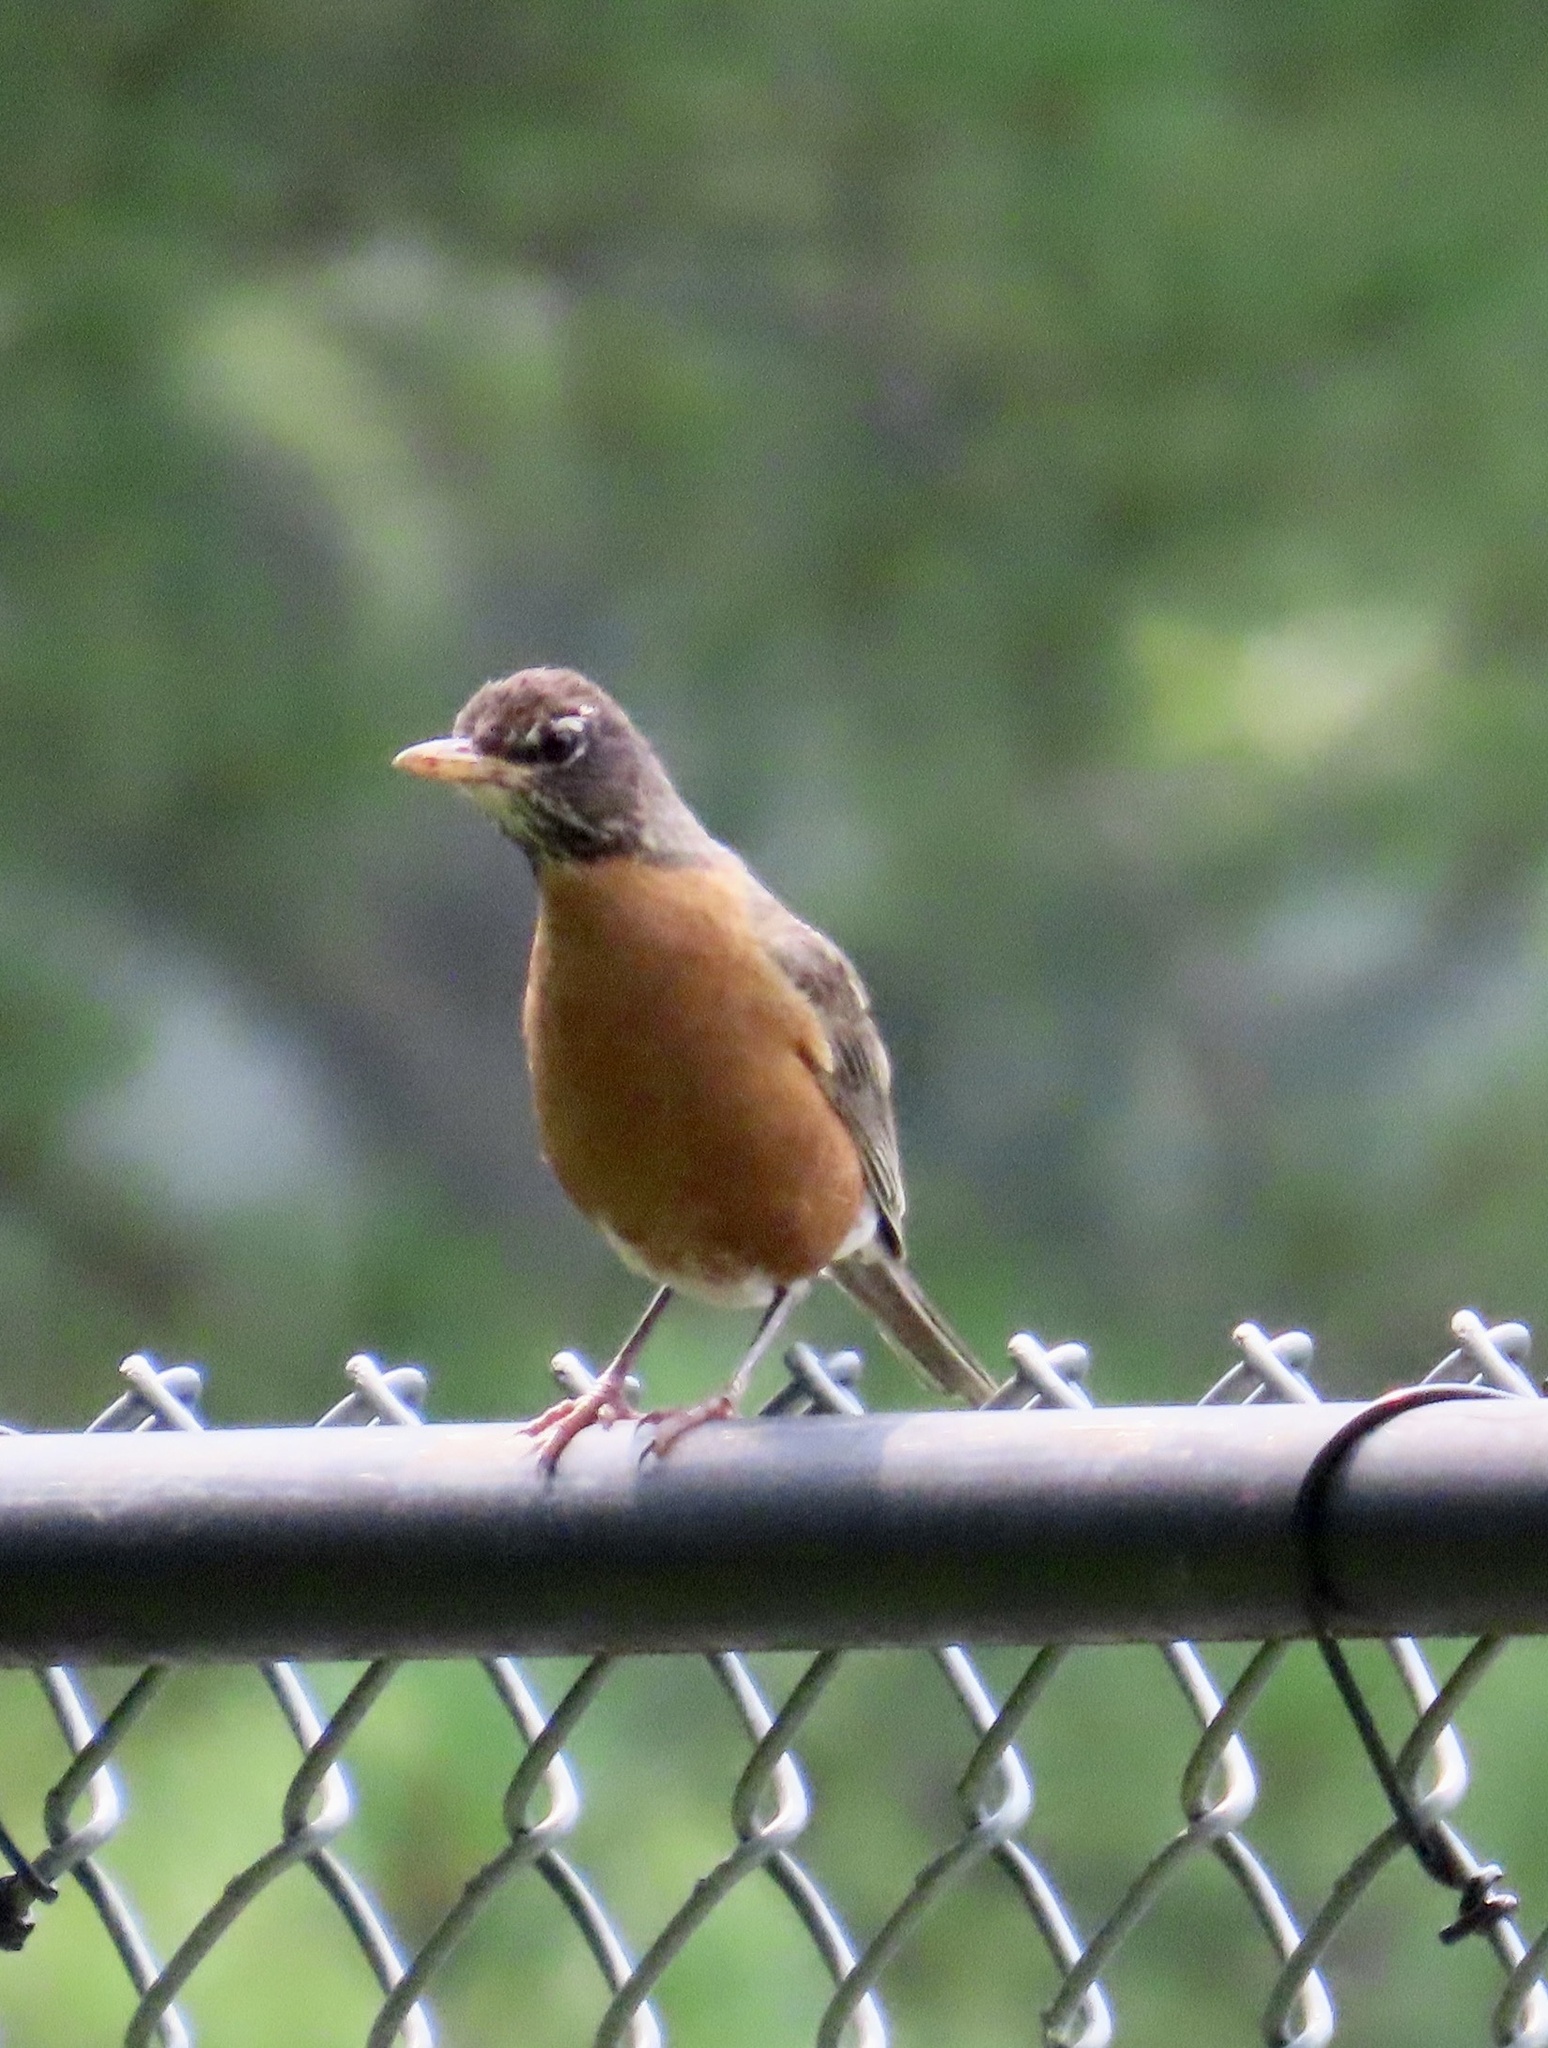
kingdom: Animalia
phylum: Chordata
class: Aves
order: Passeriformes
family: Turdidae
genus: Turdus
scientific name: Turdus migratorius
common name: American robin
